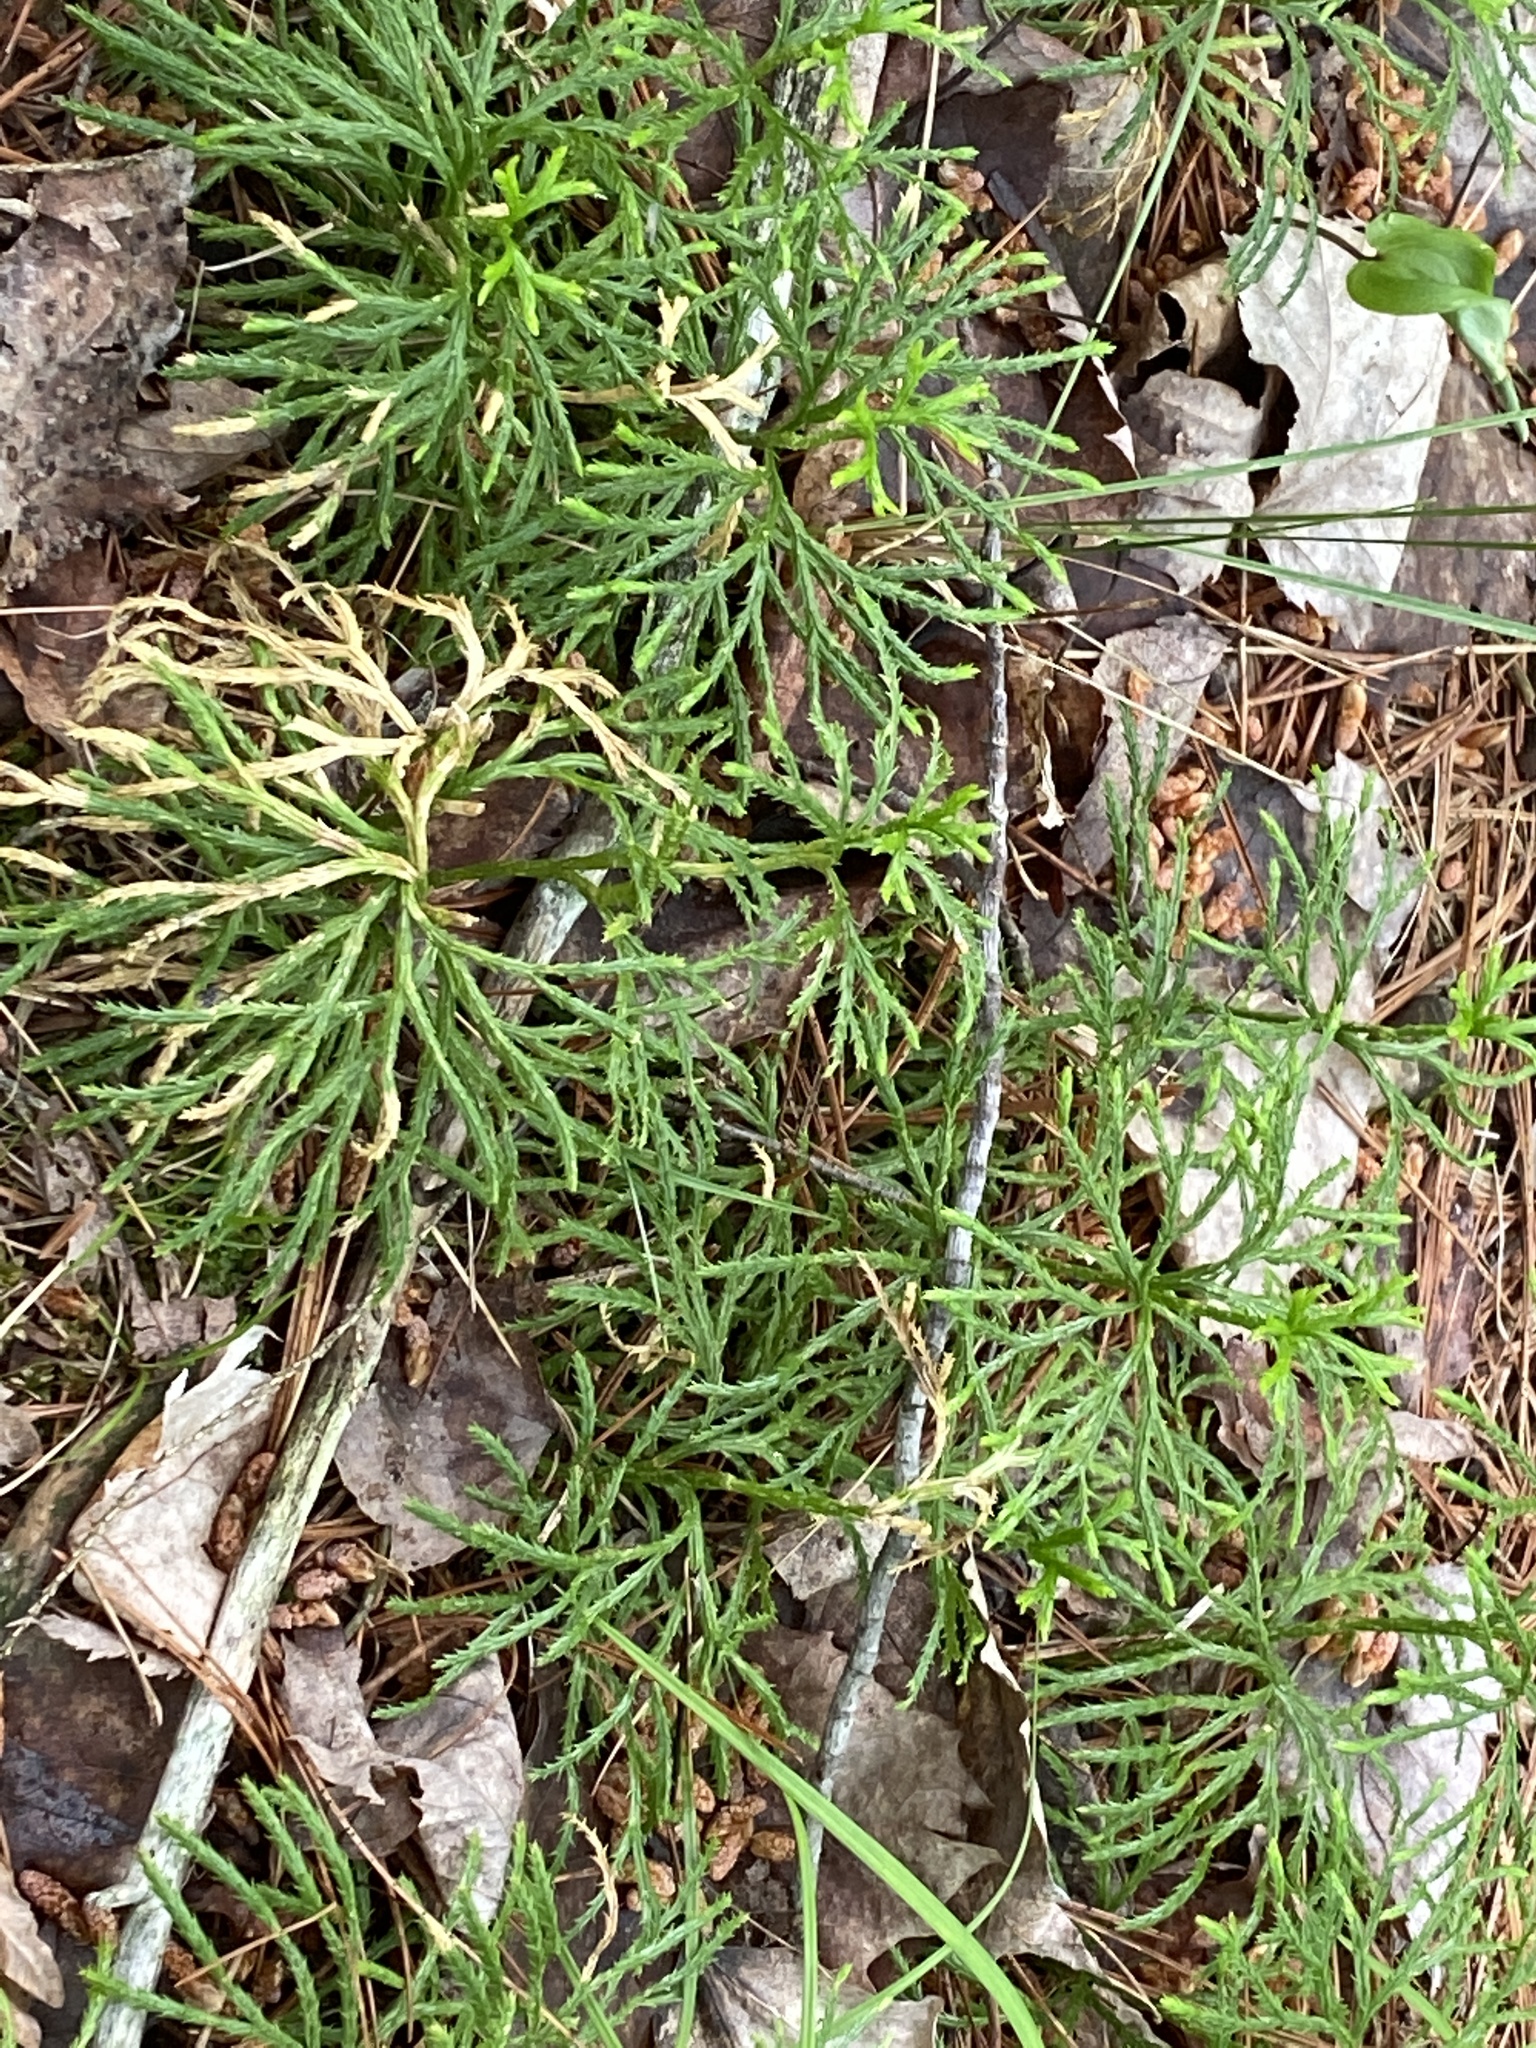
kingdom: Plantae
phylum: Tracheophyta
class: Lycopodiopsida
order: Lycopodiales
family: Lycopodiaceae
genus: Diphasiastrum
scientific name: Diphasiastrum digitatum
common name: Southern running-pine
